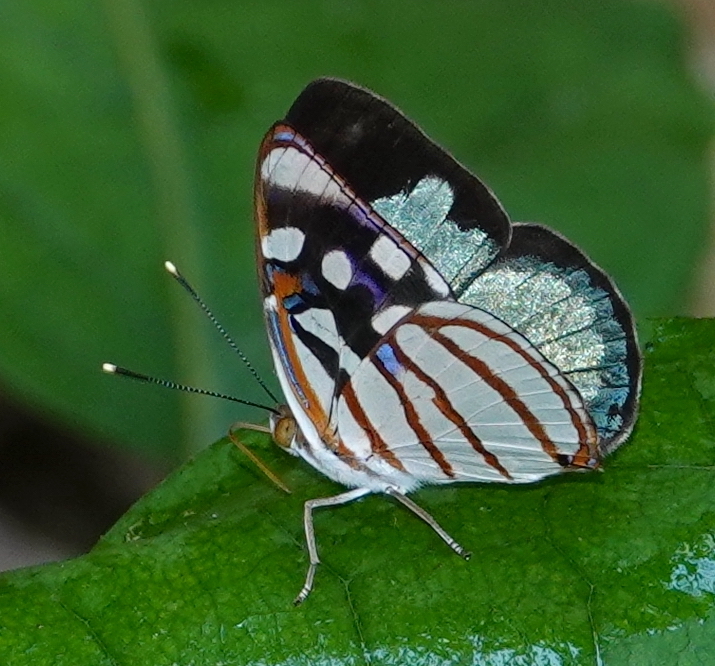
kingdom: Animalia
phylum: Arthropoda
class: Insecta
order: Lepidoptera
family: Nymphalidae
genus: Dynamine
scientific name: Dynamine chryseis
